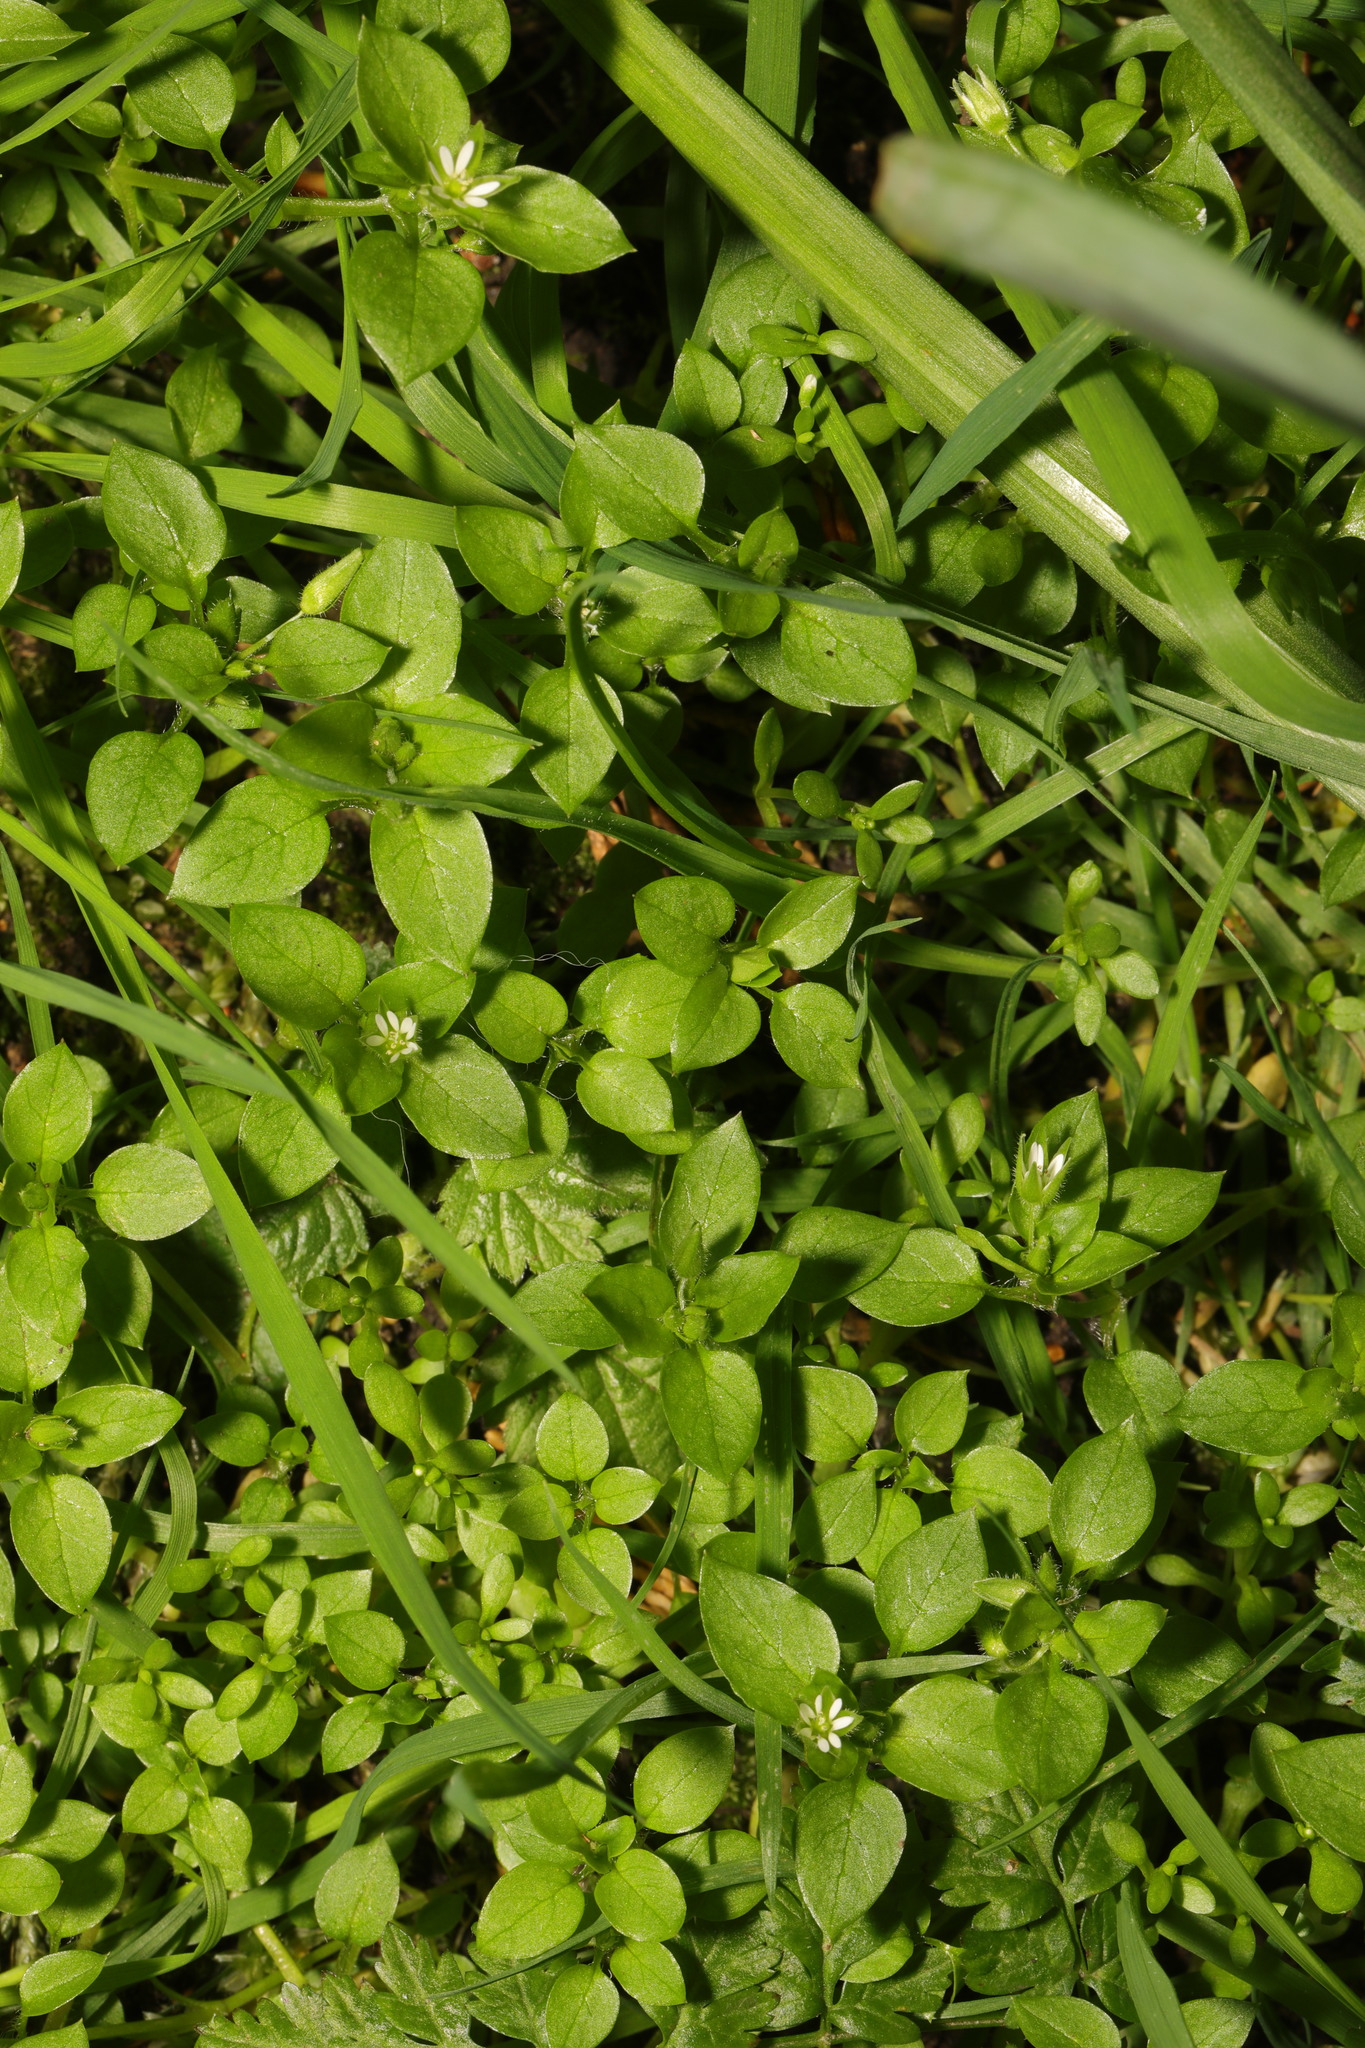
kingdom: Plantae
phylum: Tracheophyta
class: Magnoliopsida
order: Caryophyllales
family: Caryophyllaceae
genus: Stellaria
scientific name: Stellaria media
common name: Common chickweed
